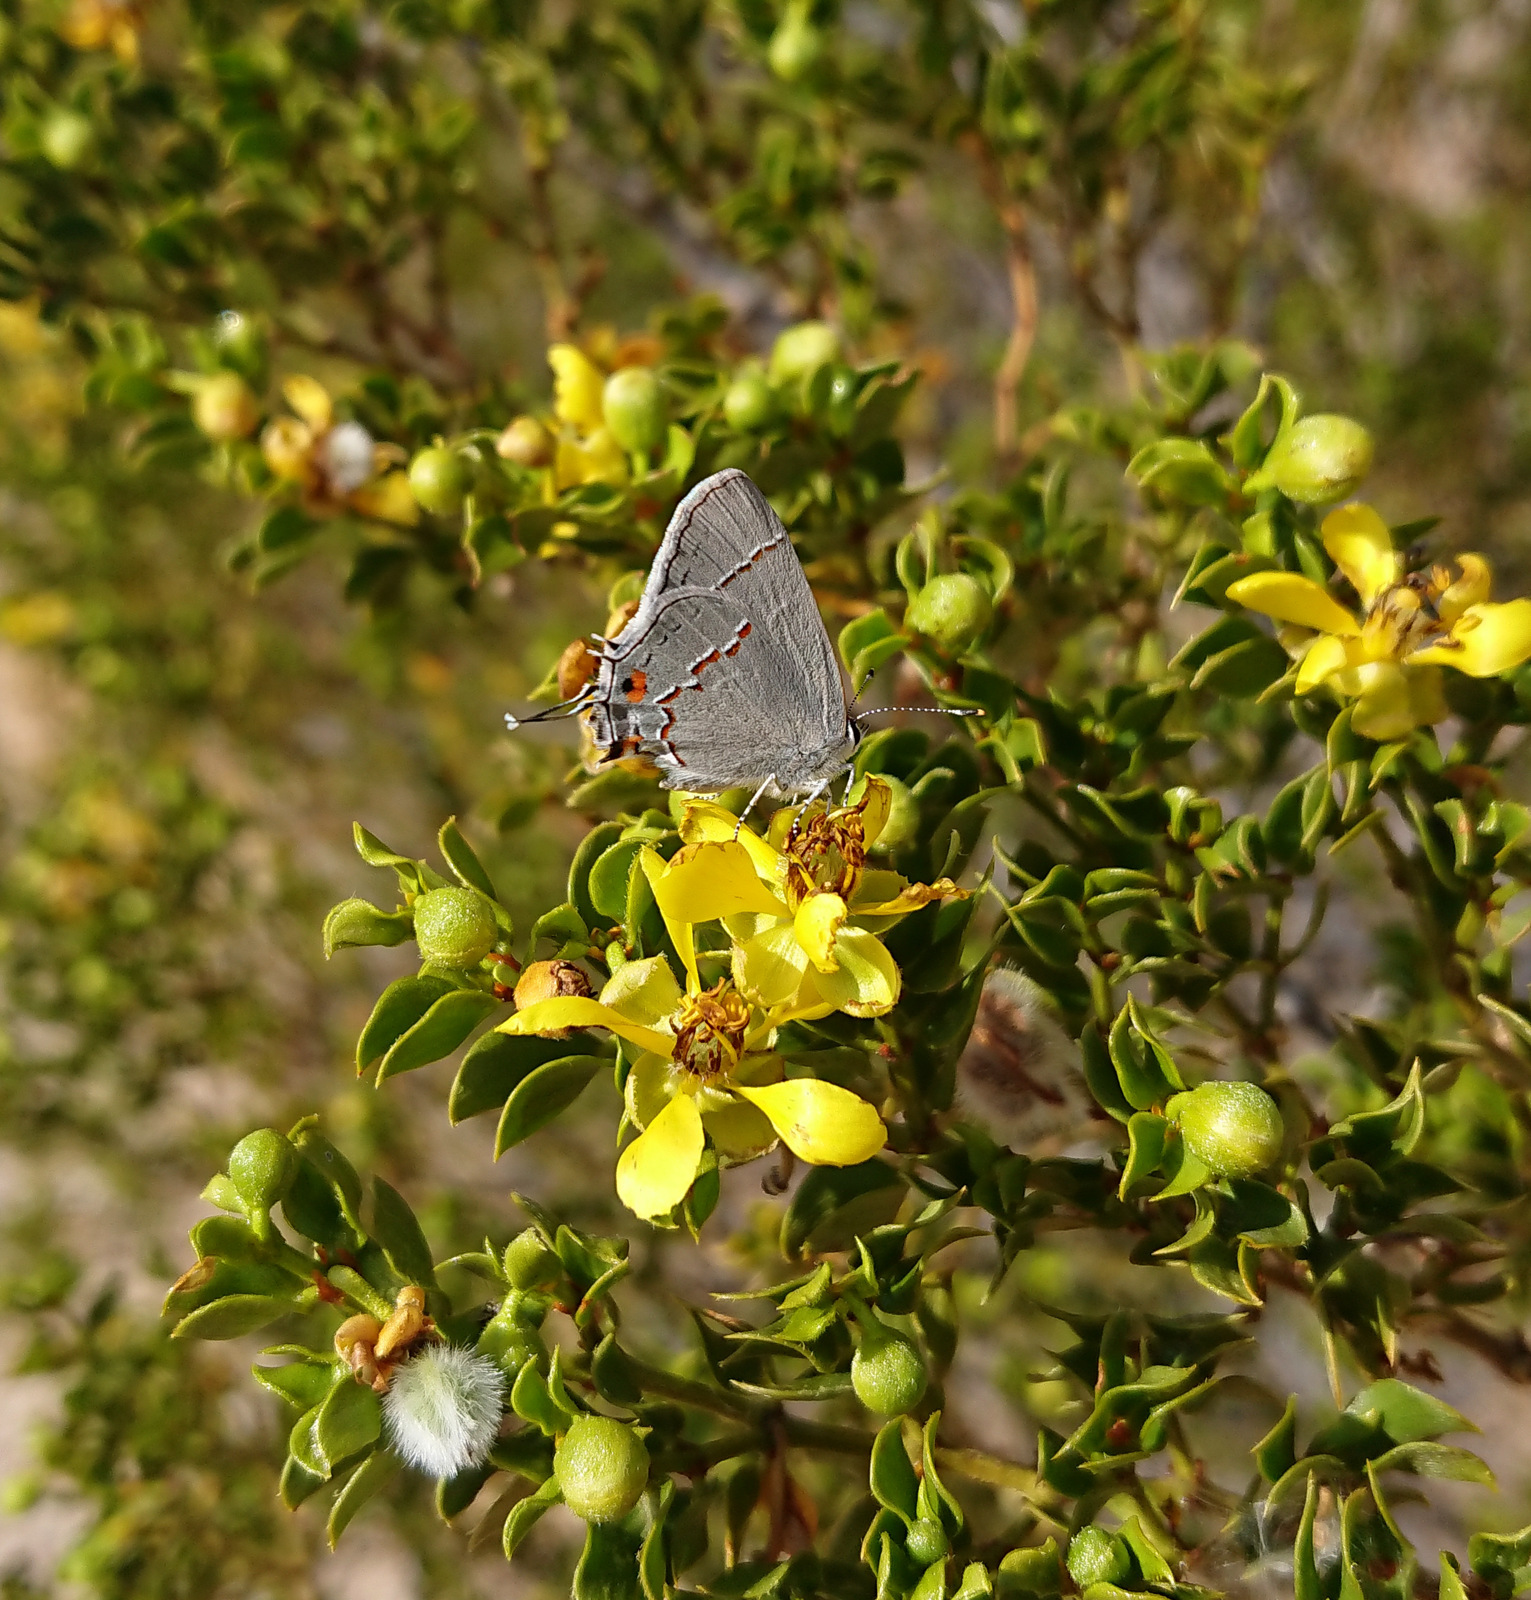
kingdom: Animalia
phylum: Arthropoda
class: Insecta
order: Lepidoptera
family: Lycaenidae
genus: Strymon
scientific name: Strymon melinus
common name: Gray hairstreak
